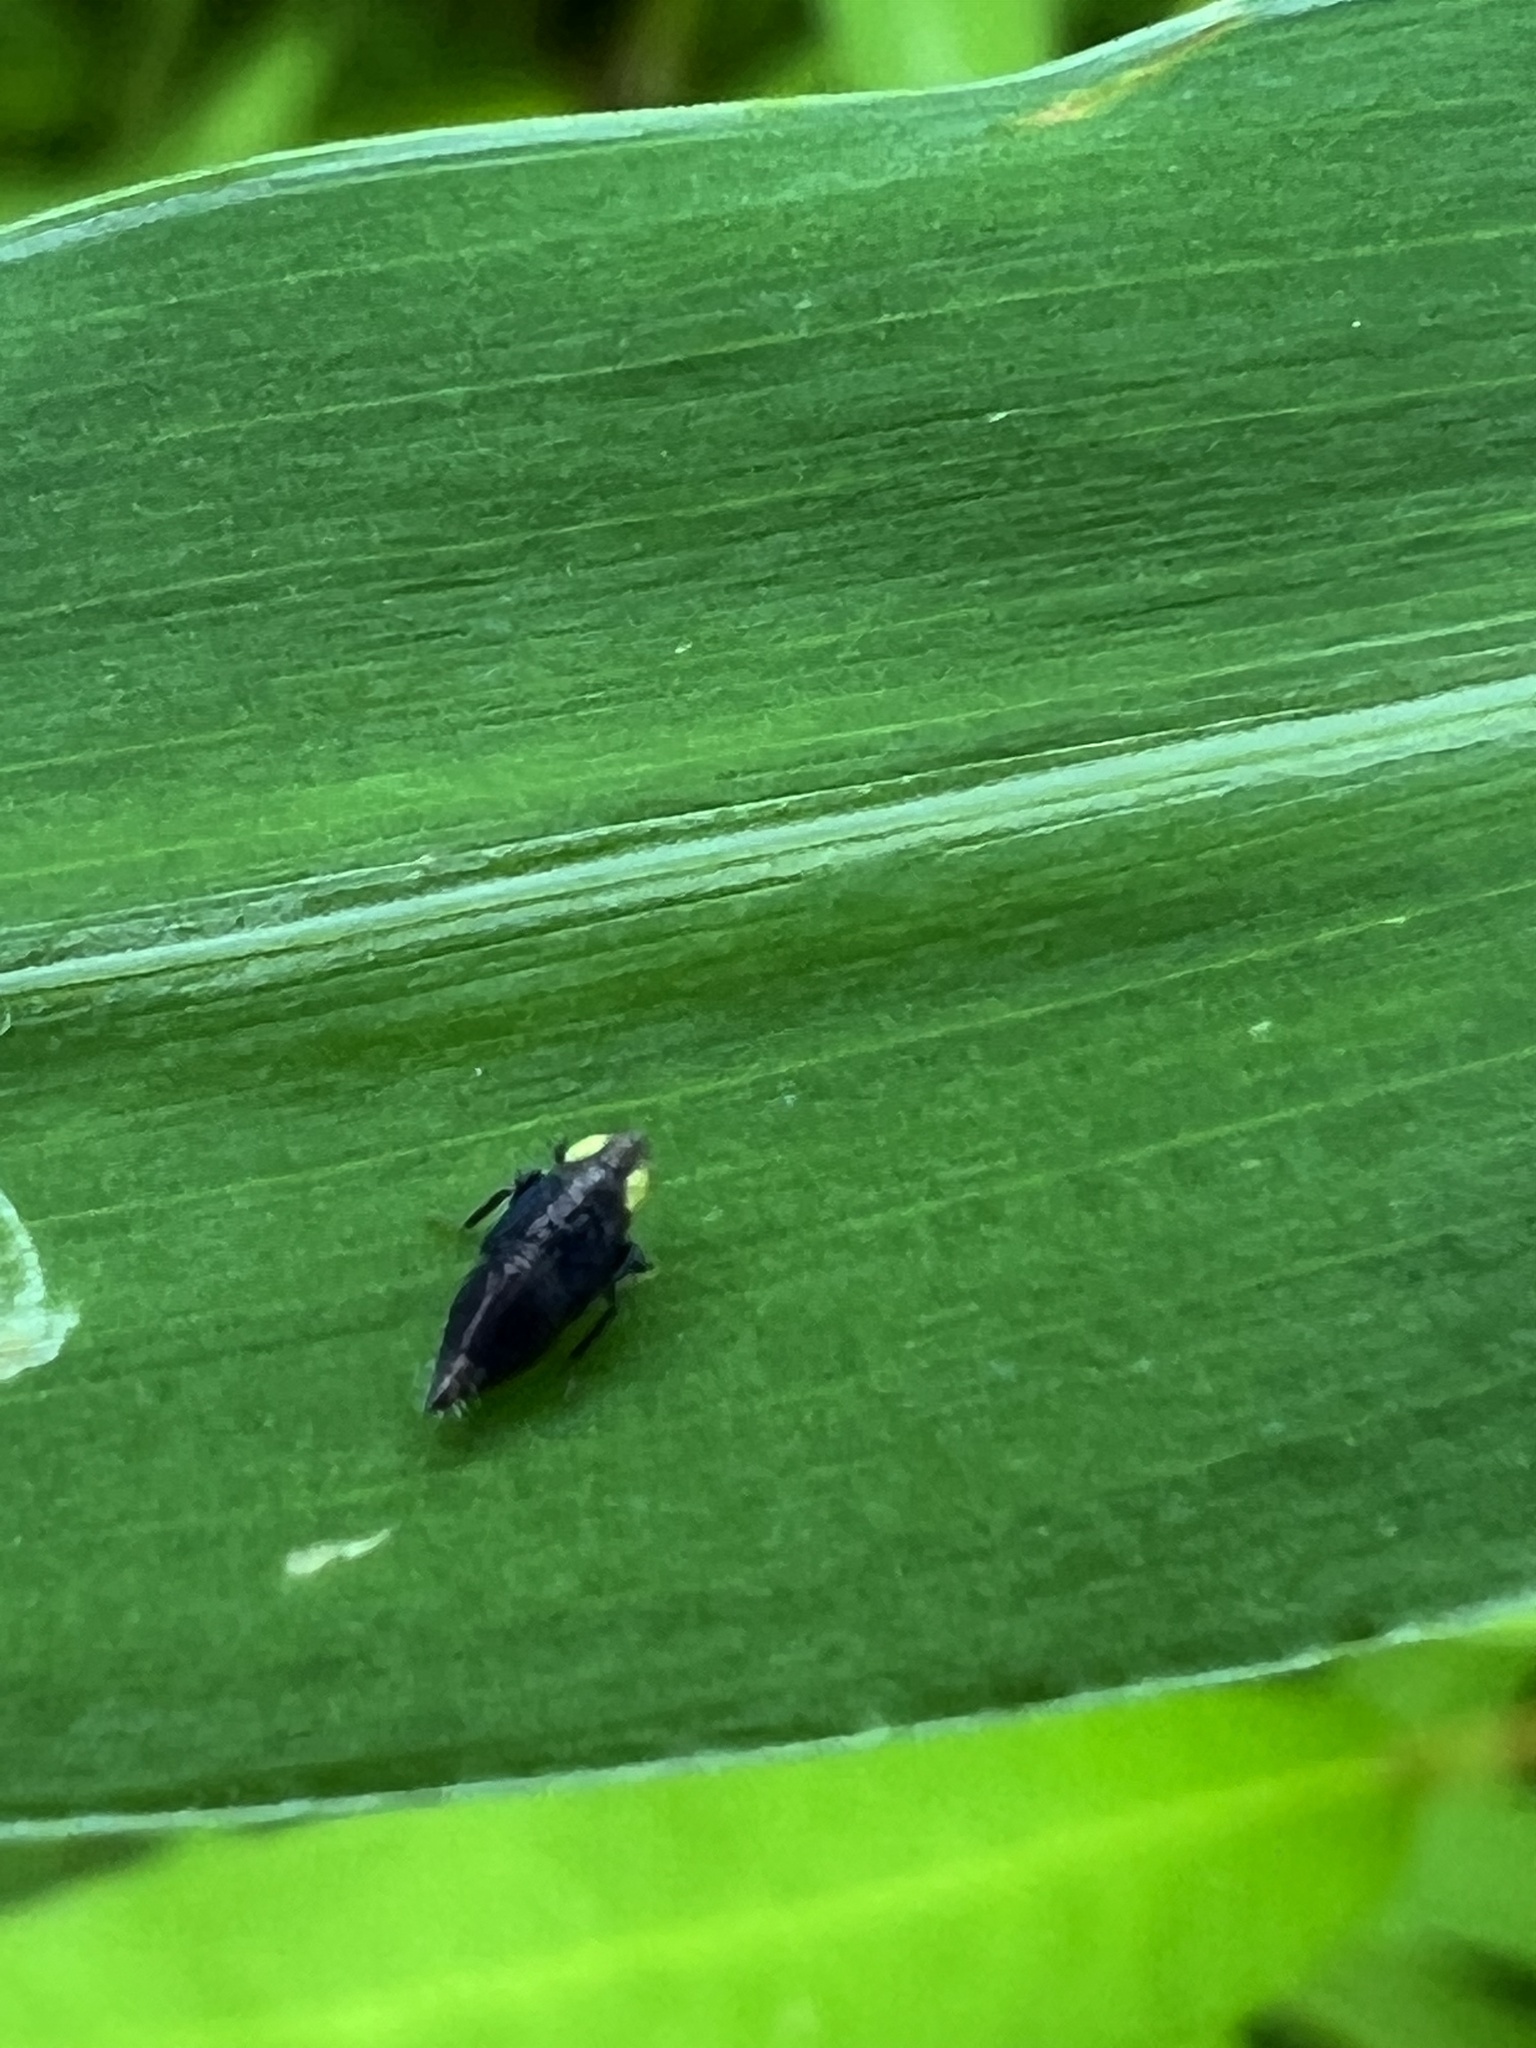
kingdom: Animalia
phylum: Arthropoda
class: Insecta
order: Hemiptera
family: Cicadellidae
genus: Stirellus
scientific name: Stirellus bicolor
